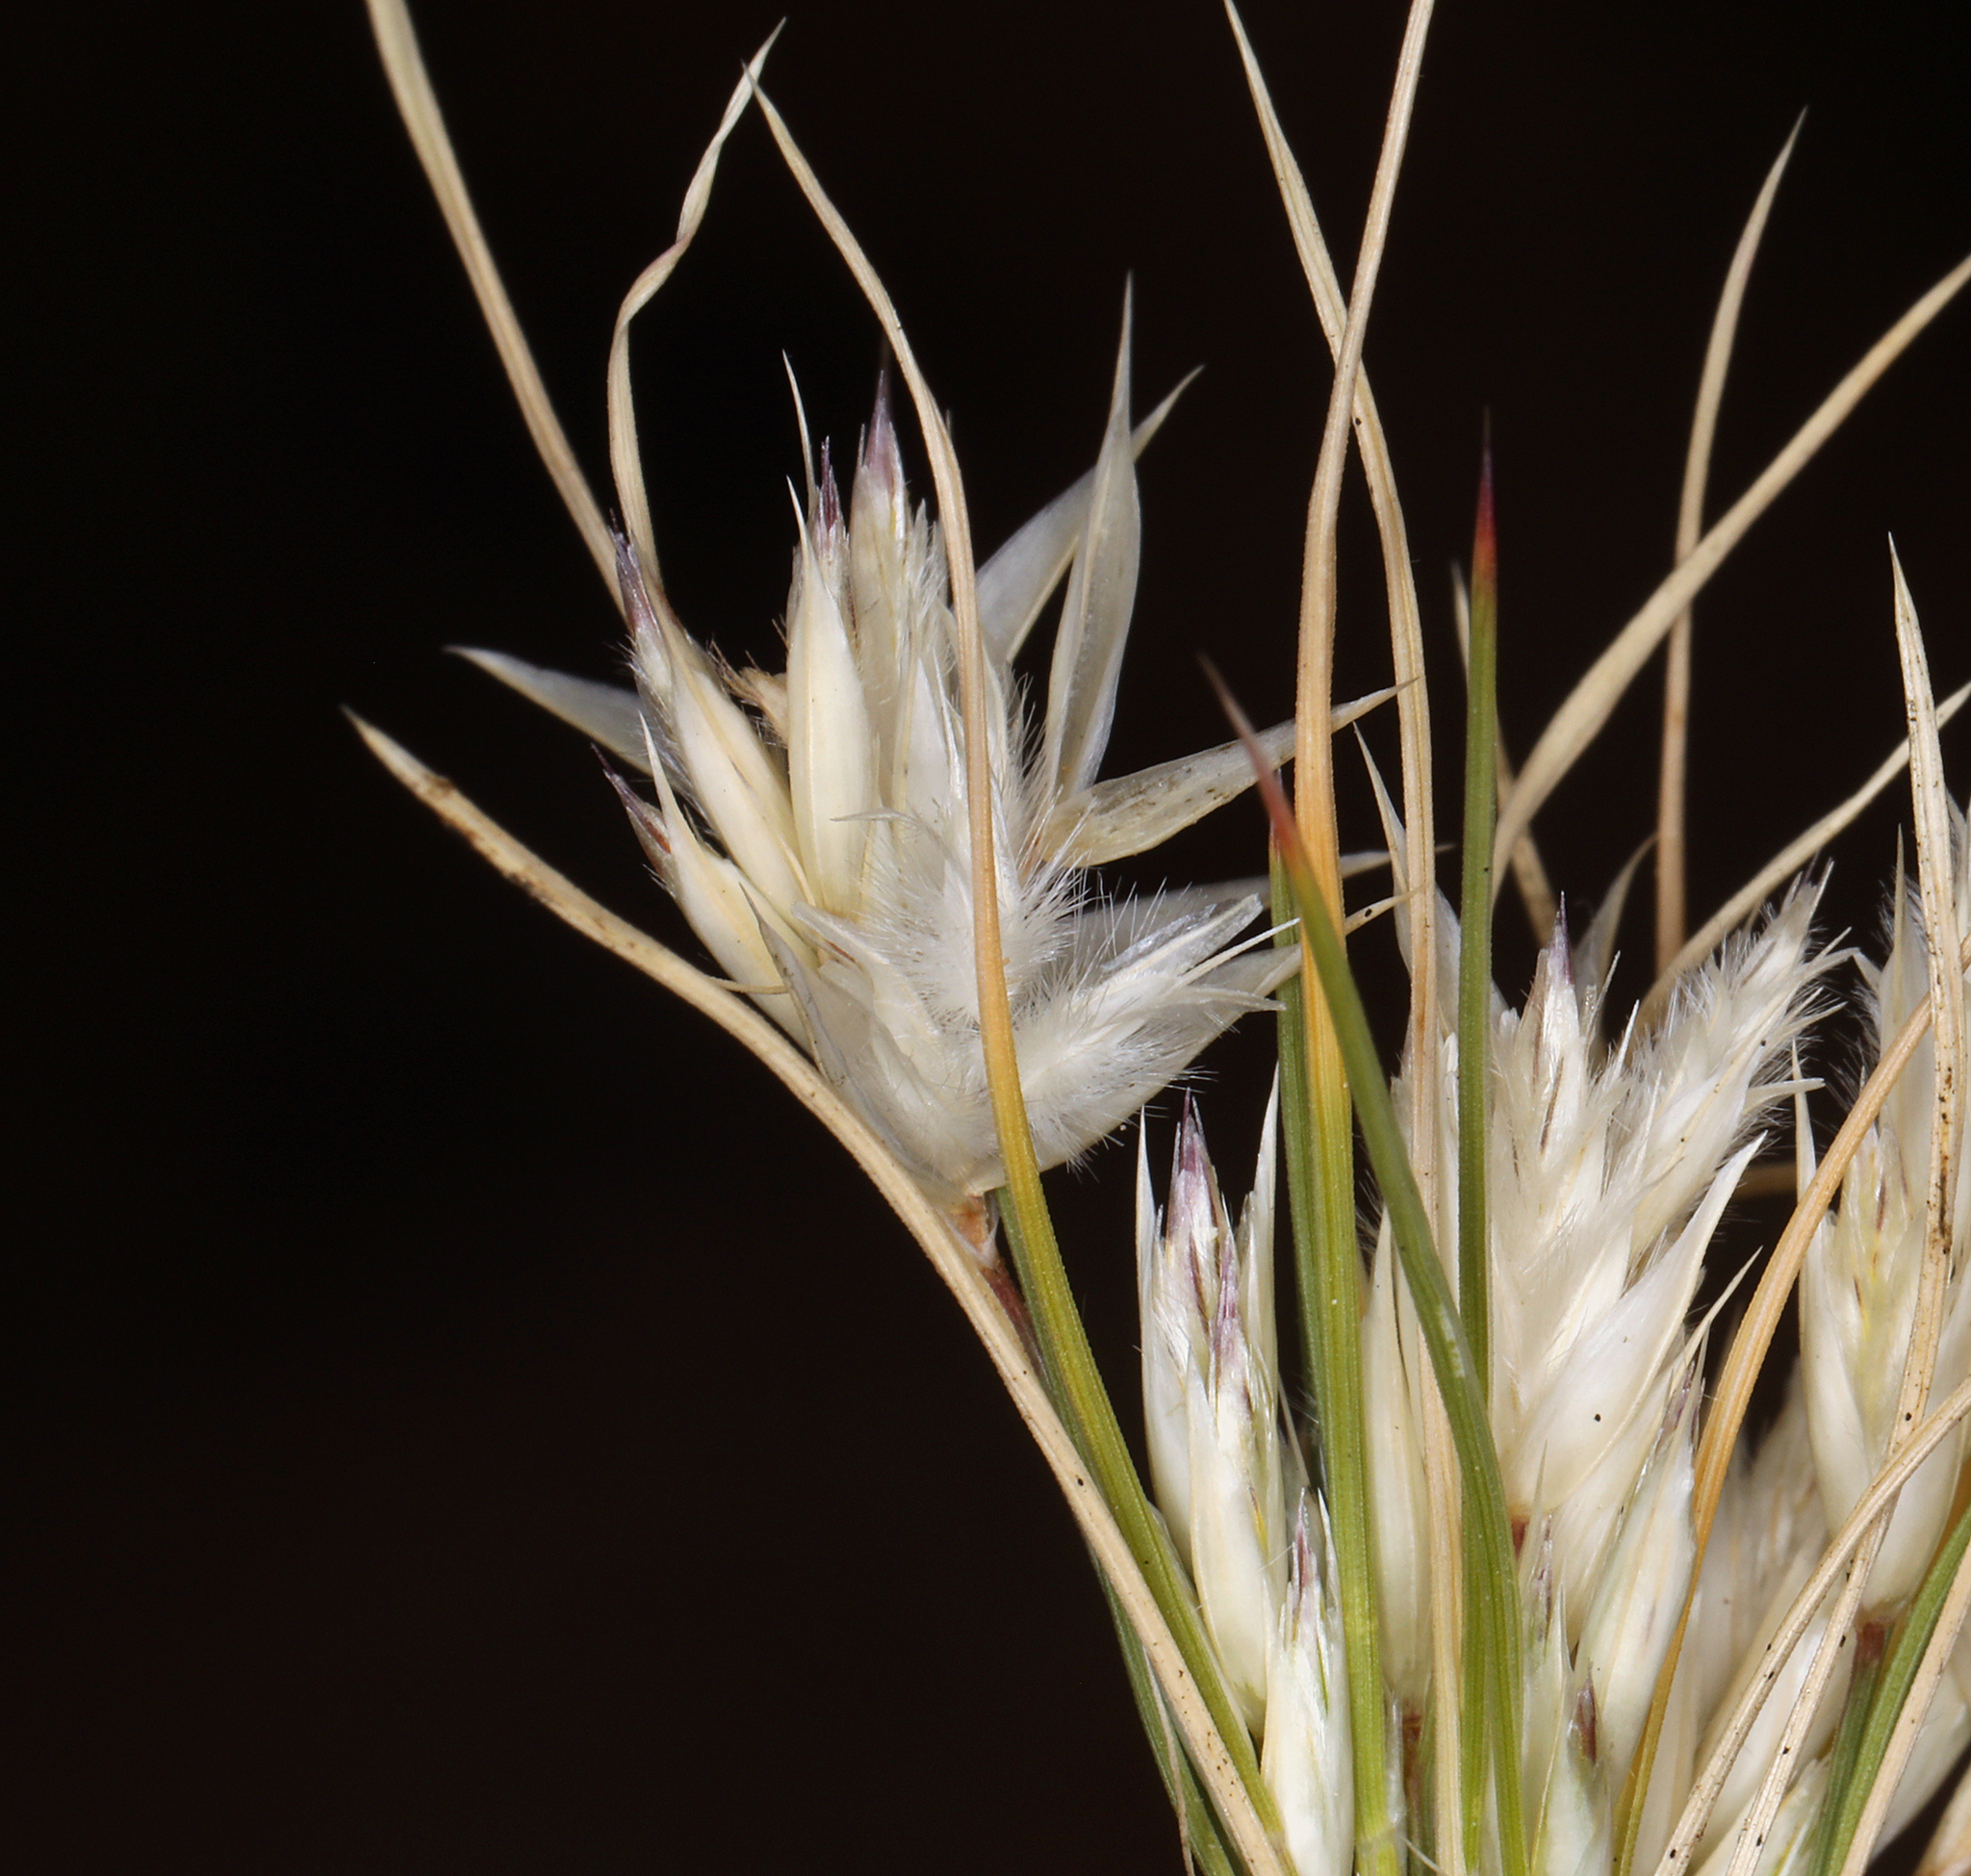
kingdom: Plantae
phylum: Tracheophyta
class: Liliopsida
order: Poales
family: Poaceae
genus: Dasyochloa
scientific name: Dasyochloa pulchella
